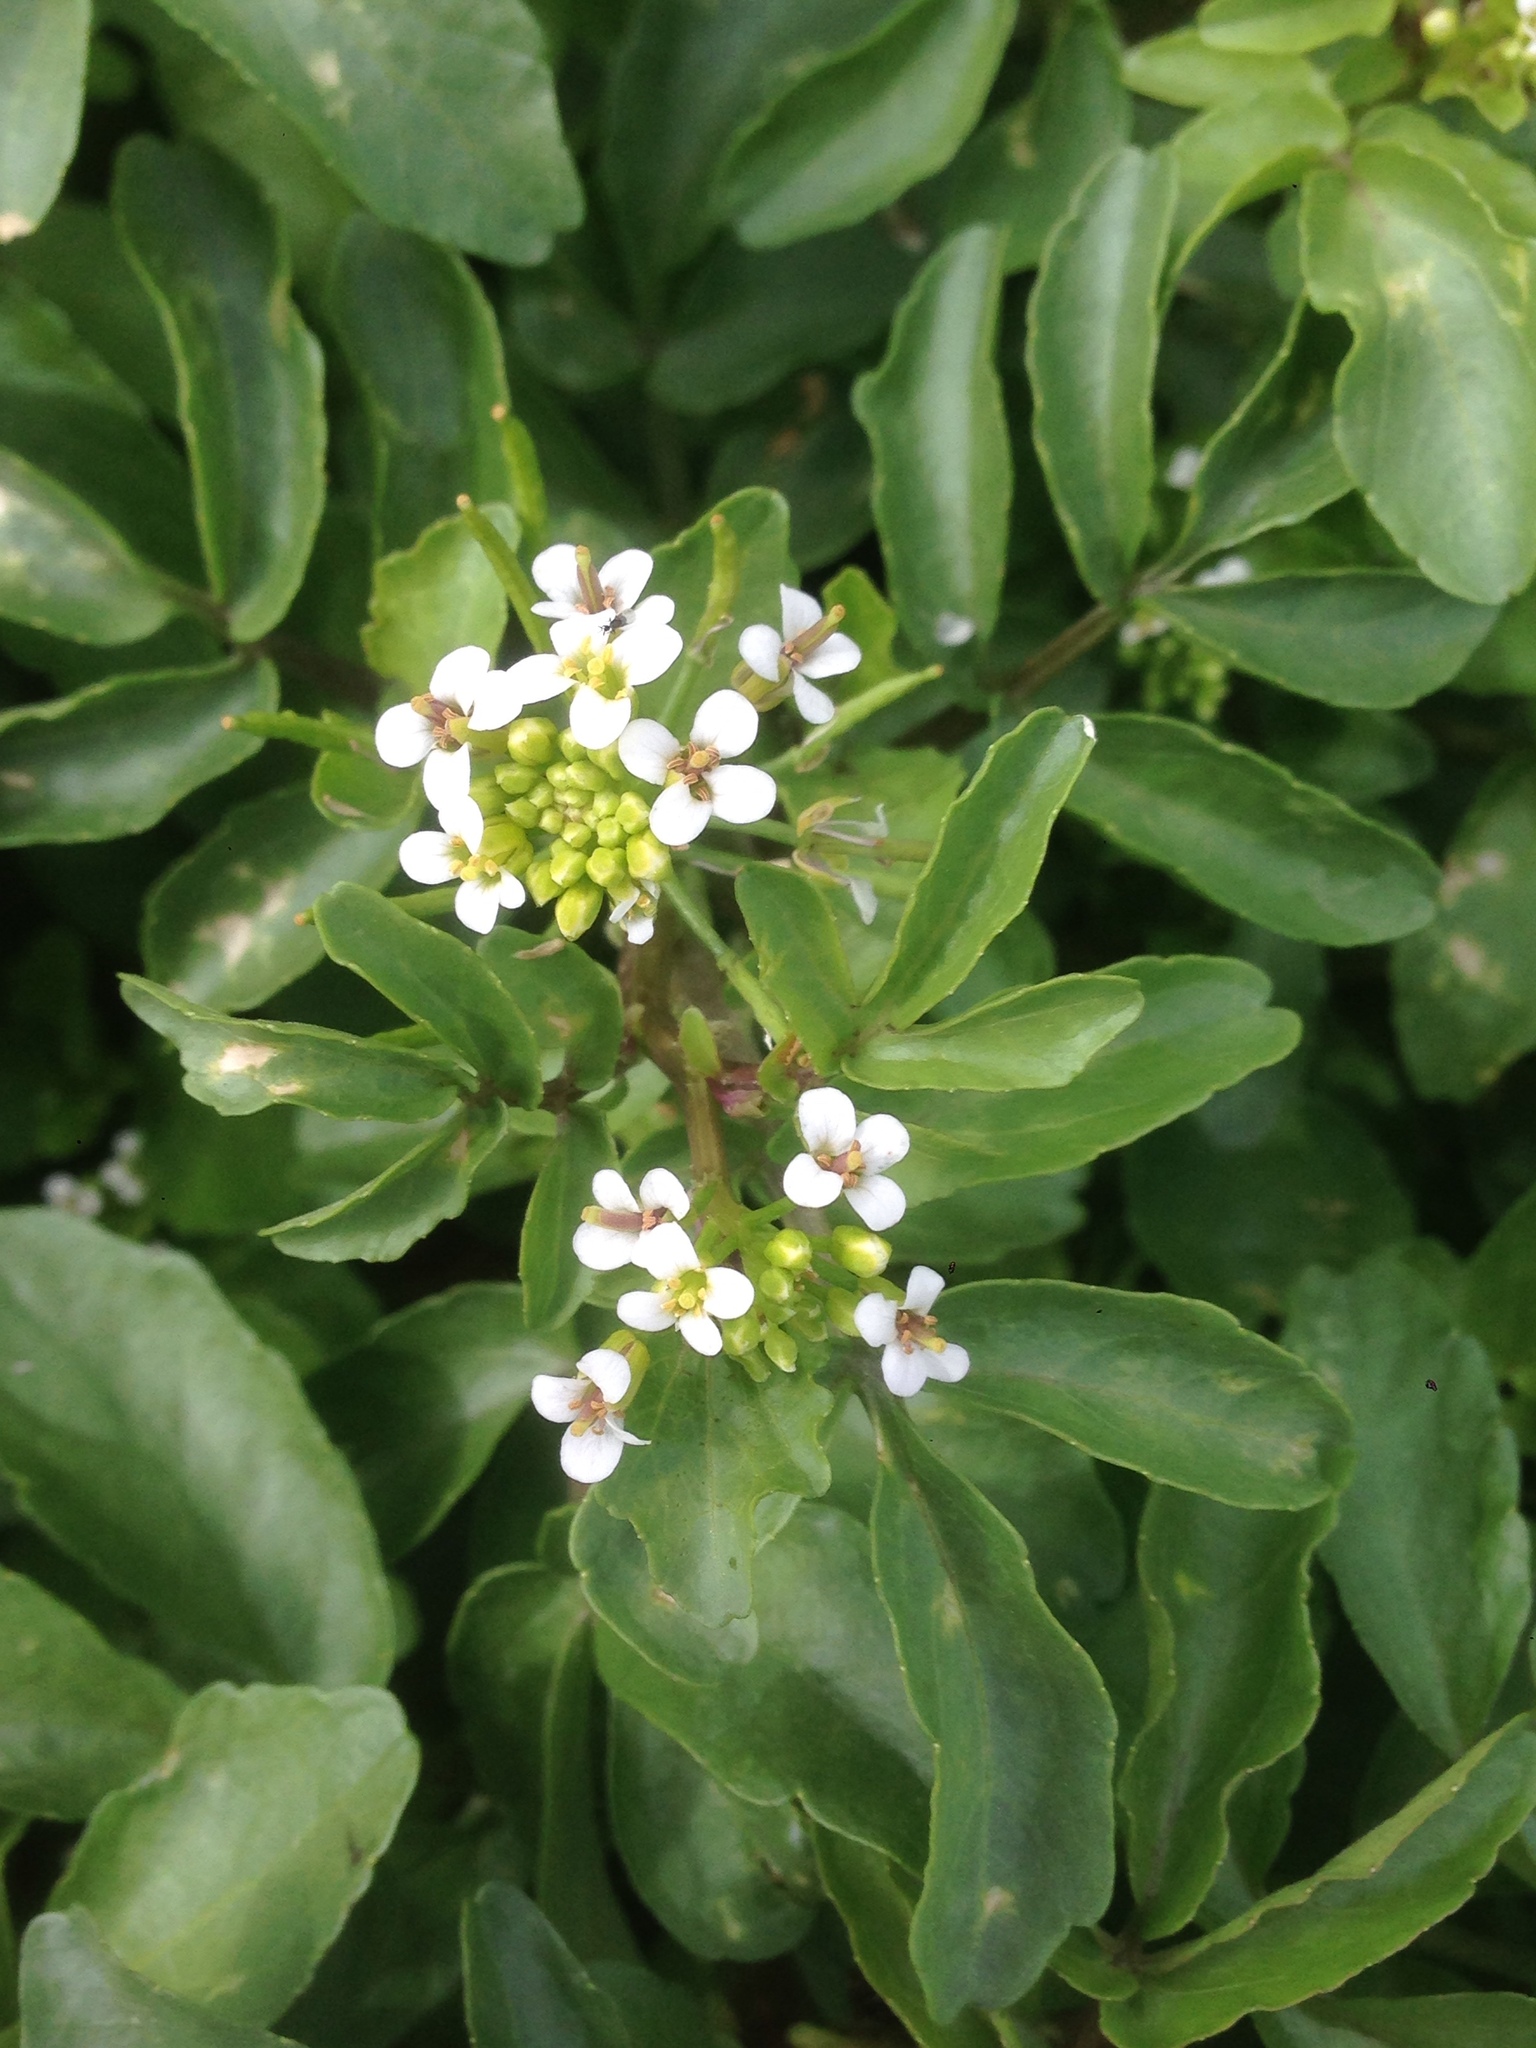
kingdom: Plantae
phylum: Tracheophyta
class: Magnoliopsida
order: Brassicales
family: Brassicaceae
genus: Nasturtium
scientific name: Nasturtium officinale
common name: Watercress
